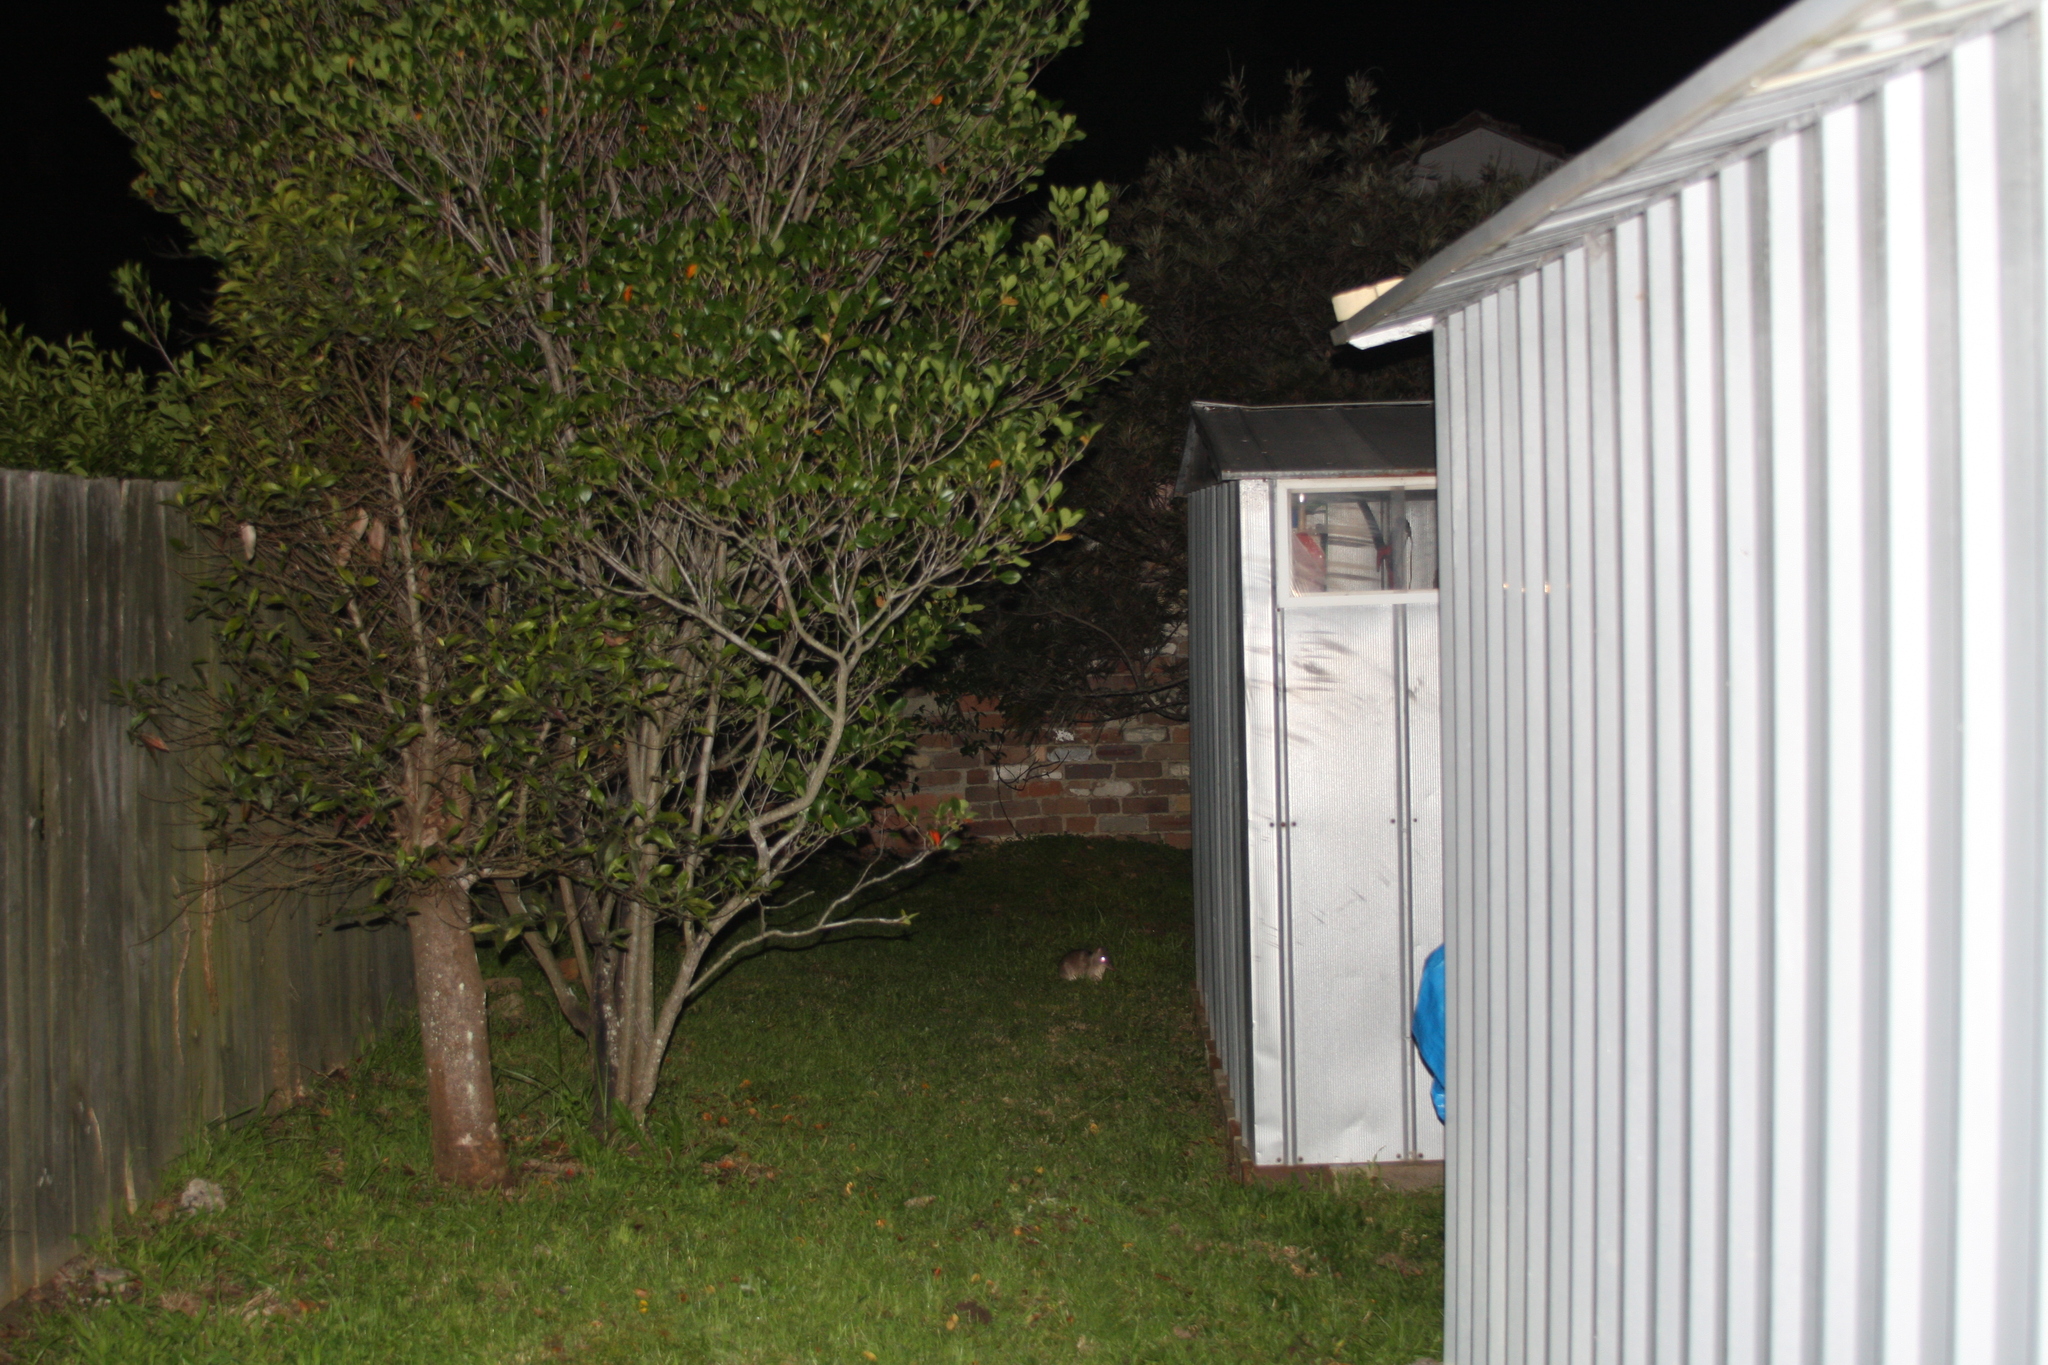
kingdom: Animalia
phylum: Chordata
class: Mammalia
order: Peramelemorphia
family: Peramelidae
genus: Perameles
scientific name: Perameles nasuta
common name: Long-nosed bandicoot
